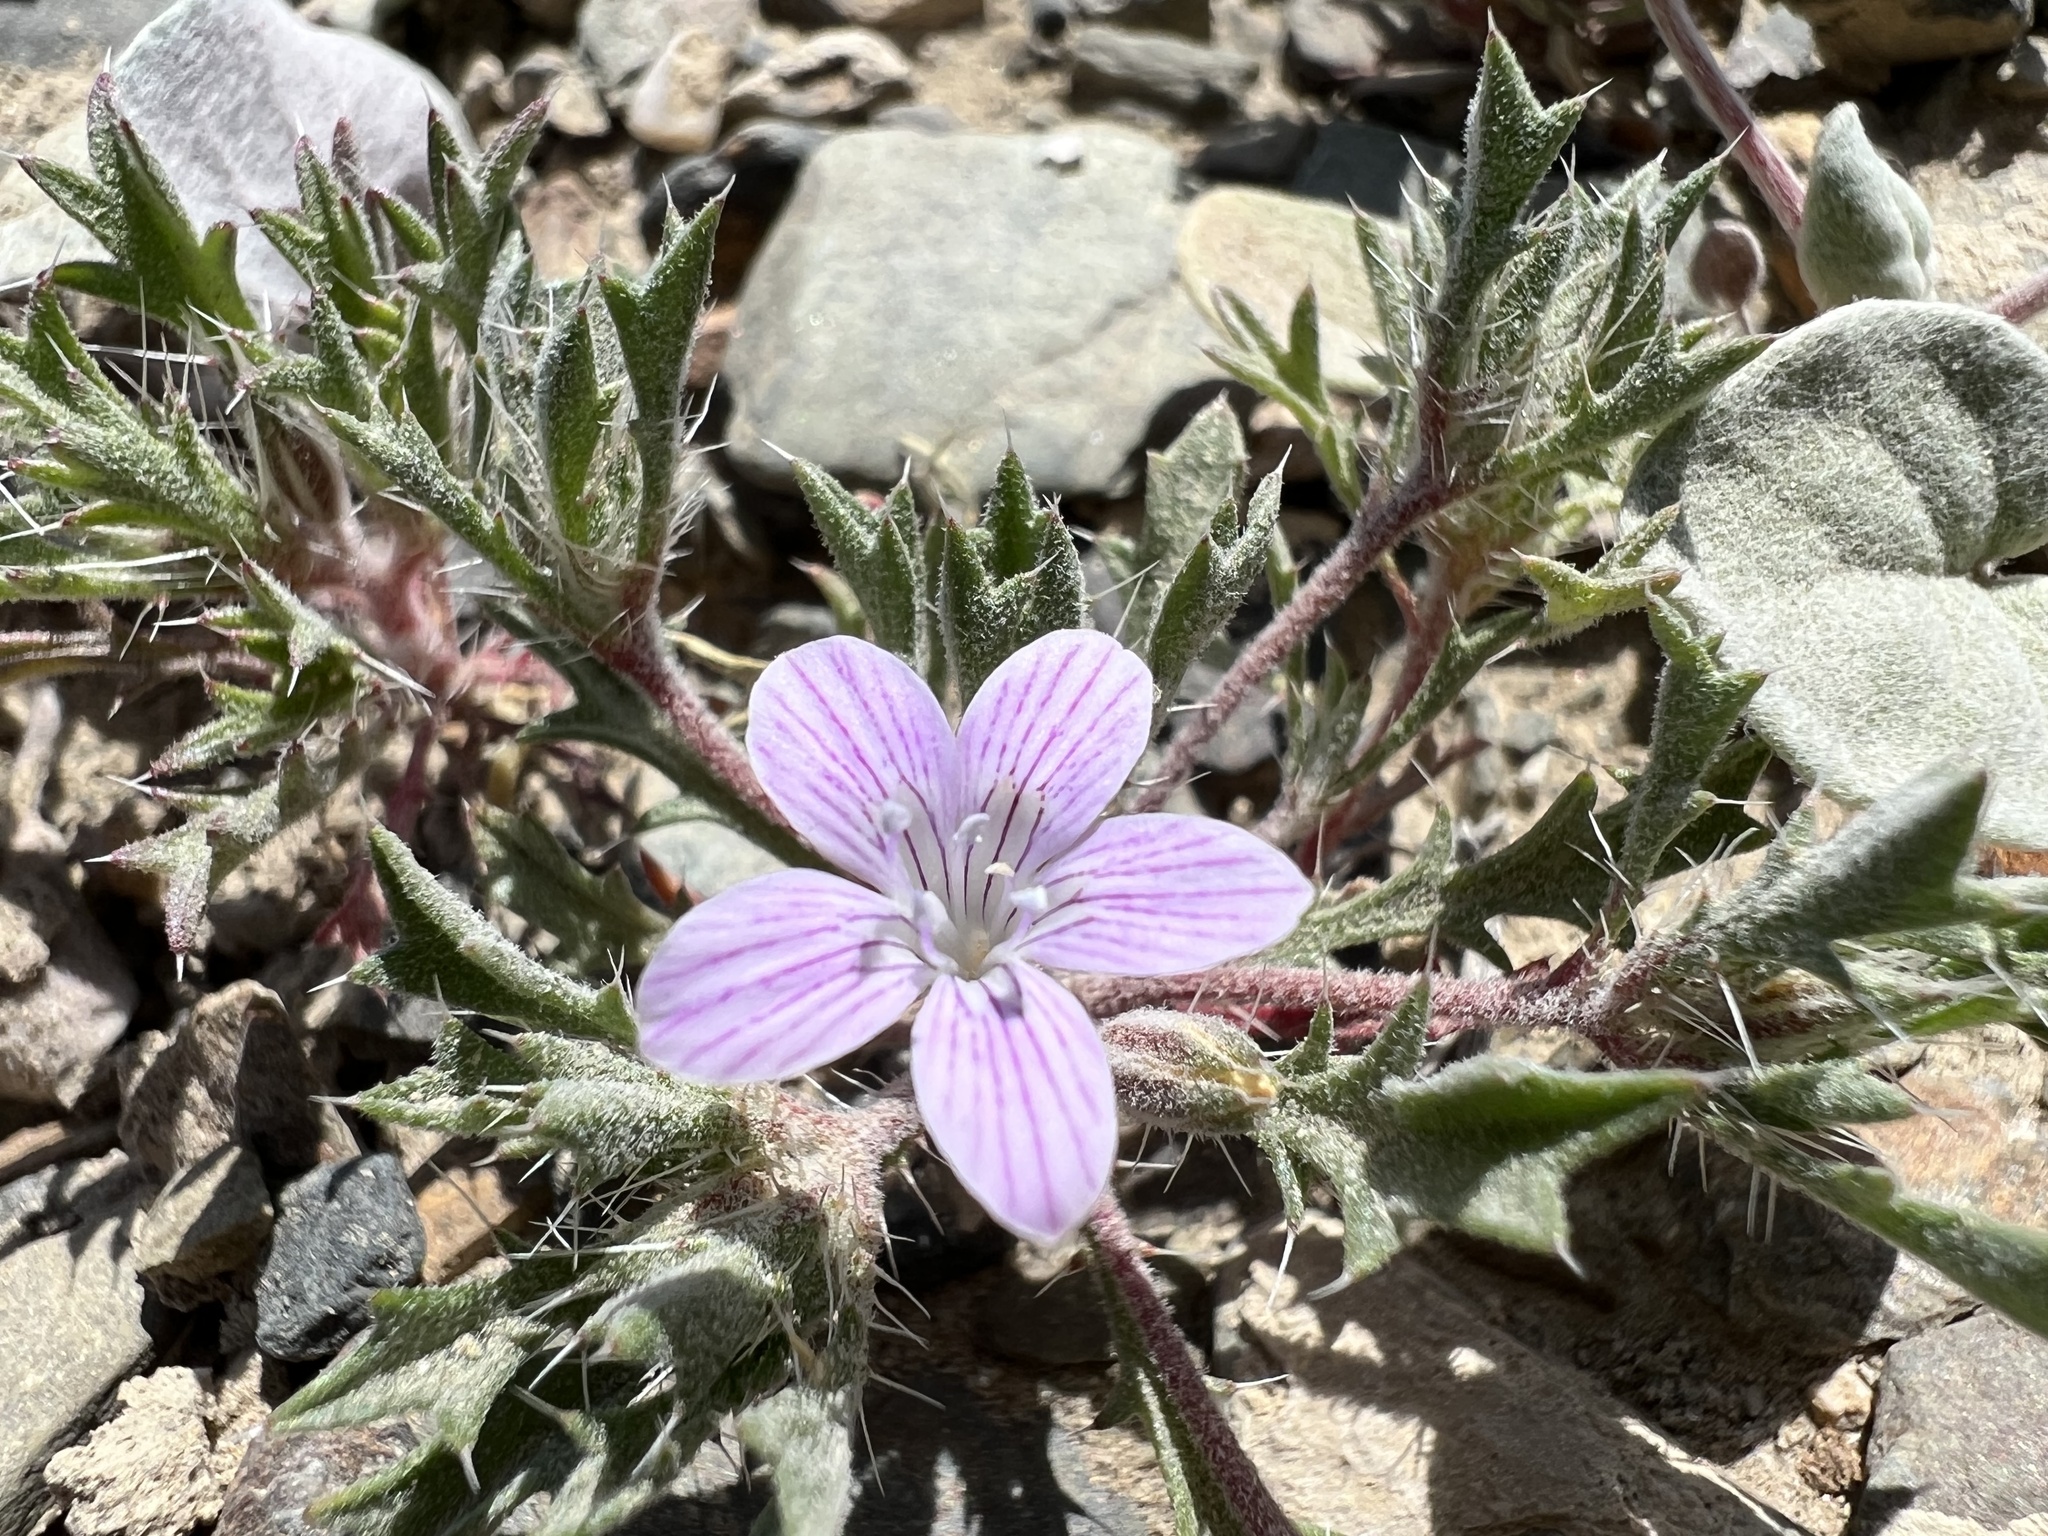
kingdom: Plantae
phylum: Tracheophyta
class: Magnoliopsida
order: Ericales
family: Polemoniaceae
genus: Langloisia
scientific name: Langloisia setosissima
